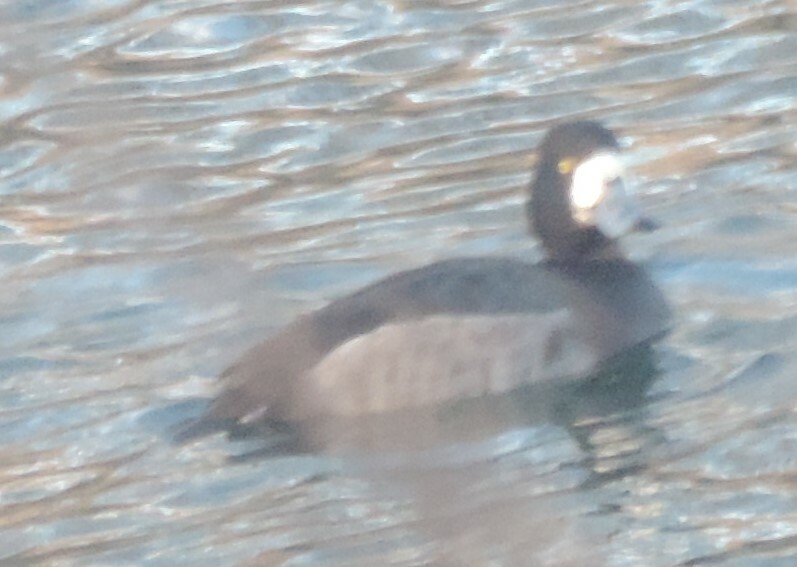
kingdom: Animalia
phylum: Chordata
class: Aves
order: Anseriformes
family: Anatidae
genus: Aythya
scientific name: Aythya marila
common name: Greater scaup
